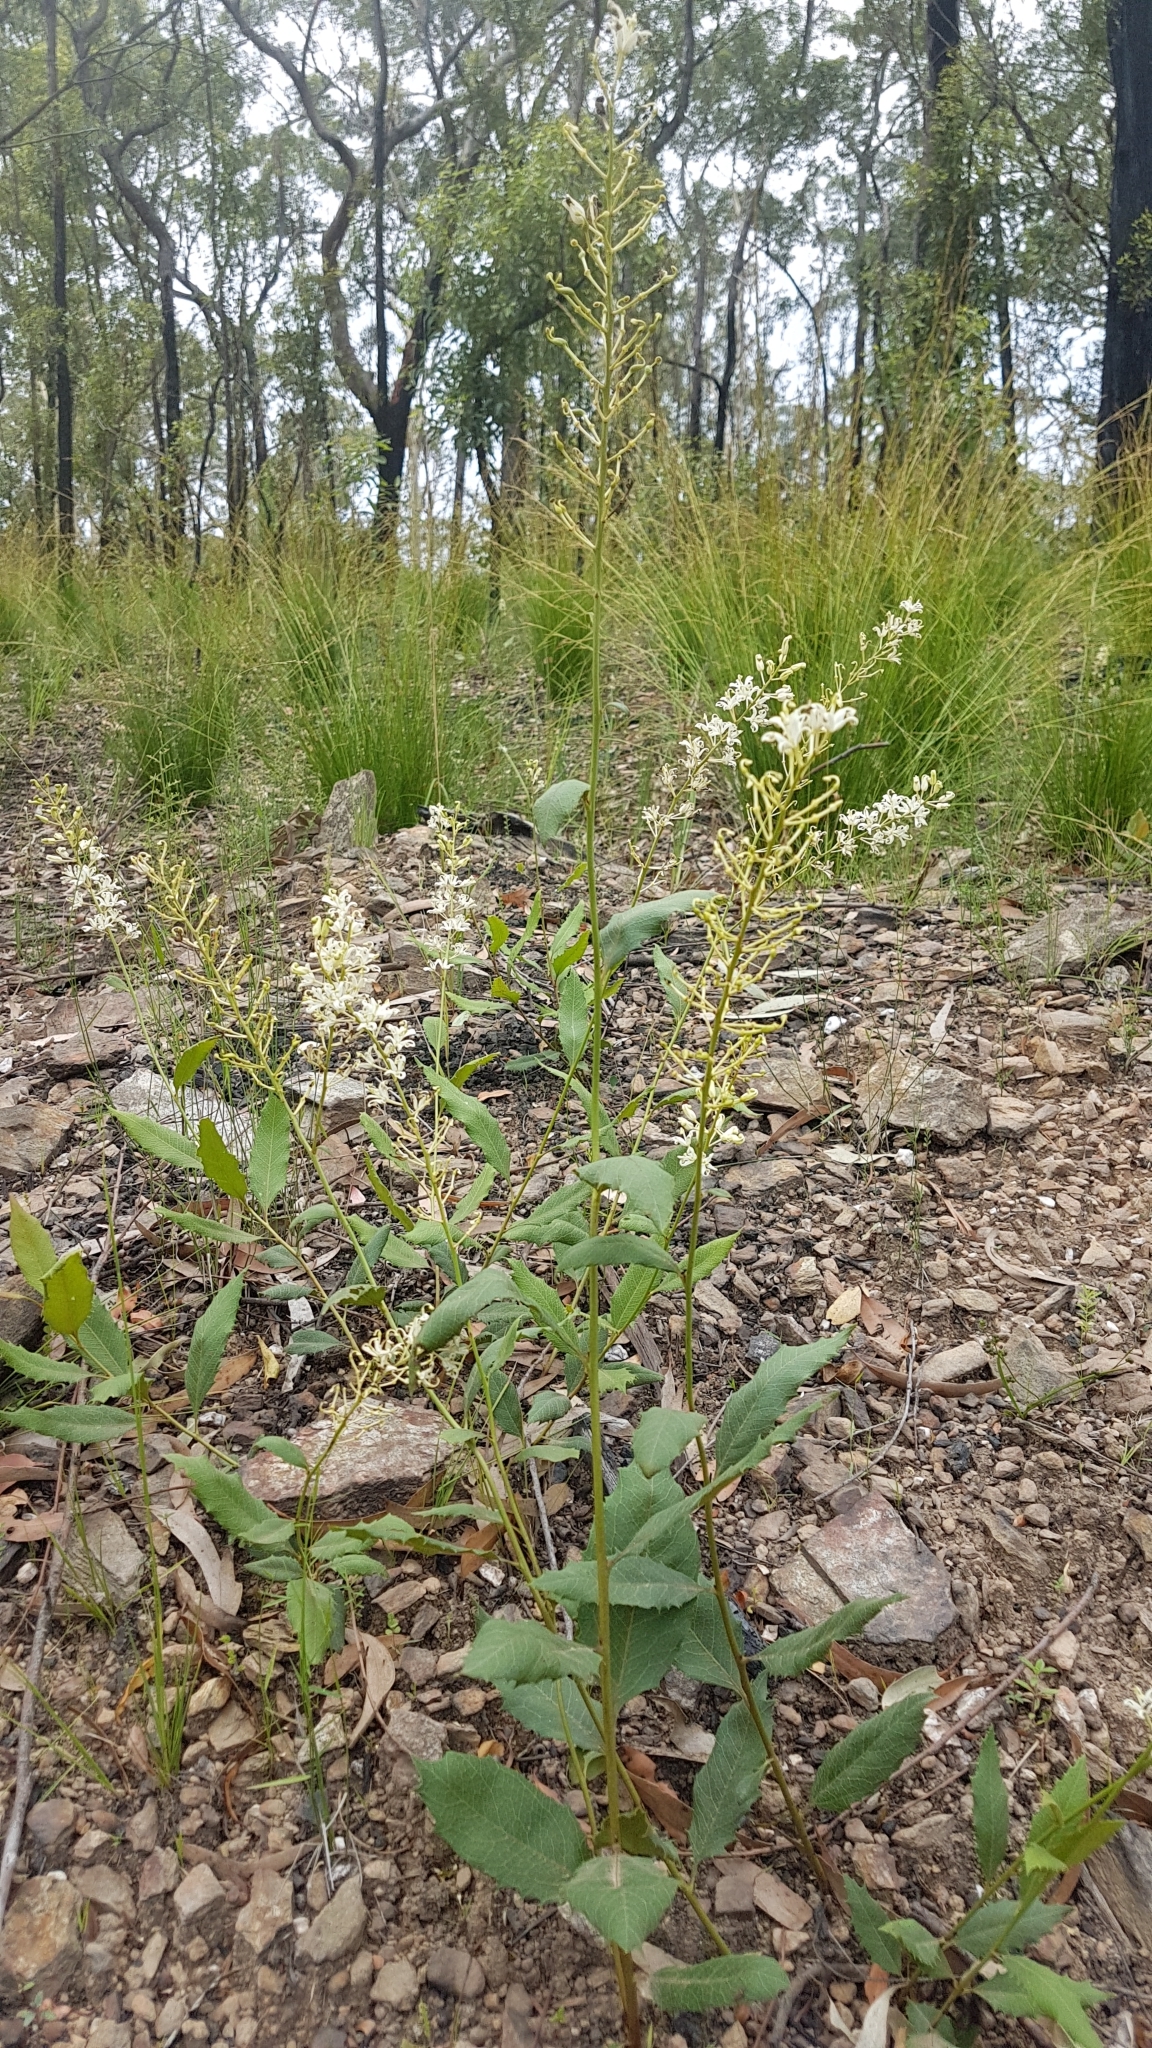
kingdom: Plantae
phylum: Tracheophyta
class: Magnoliopsida
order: Proteales
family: Proteaceae
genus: Lomatia
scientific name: Lomatia ilicifolia
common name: Native-holly
